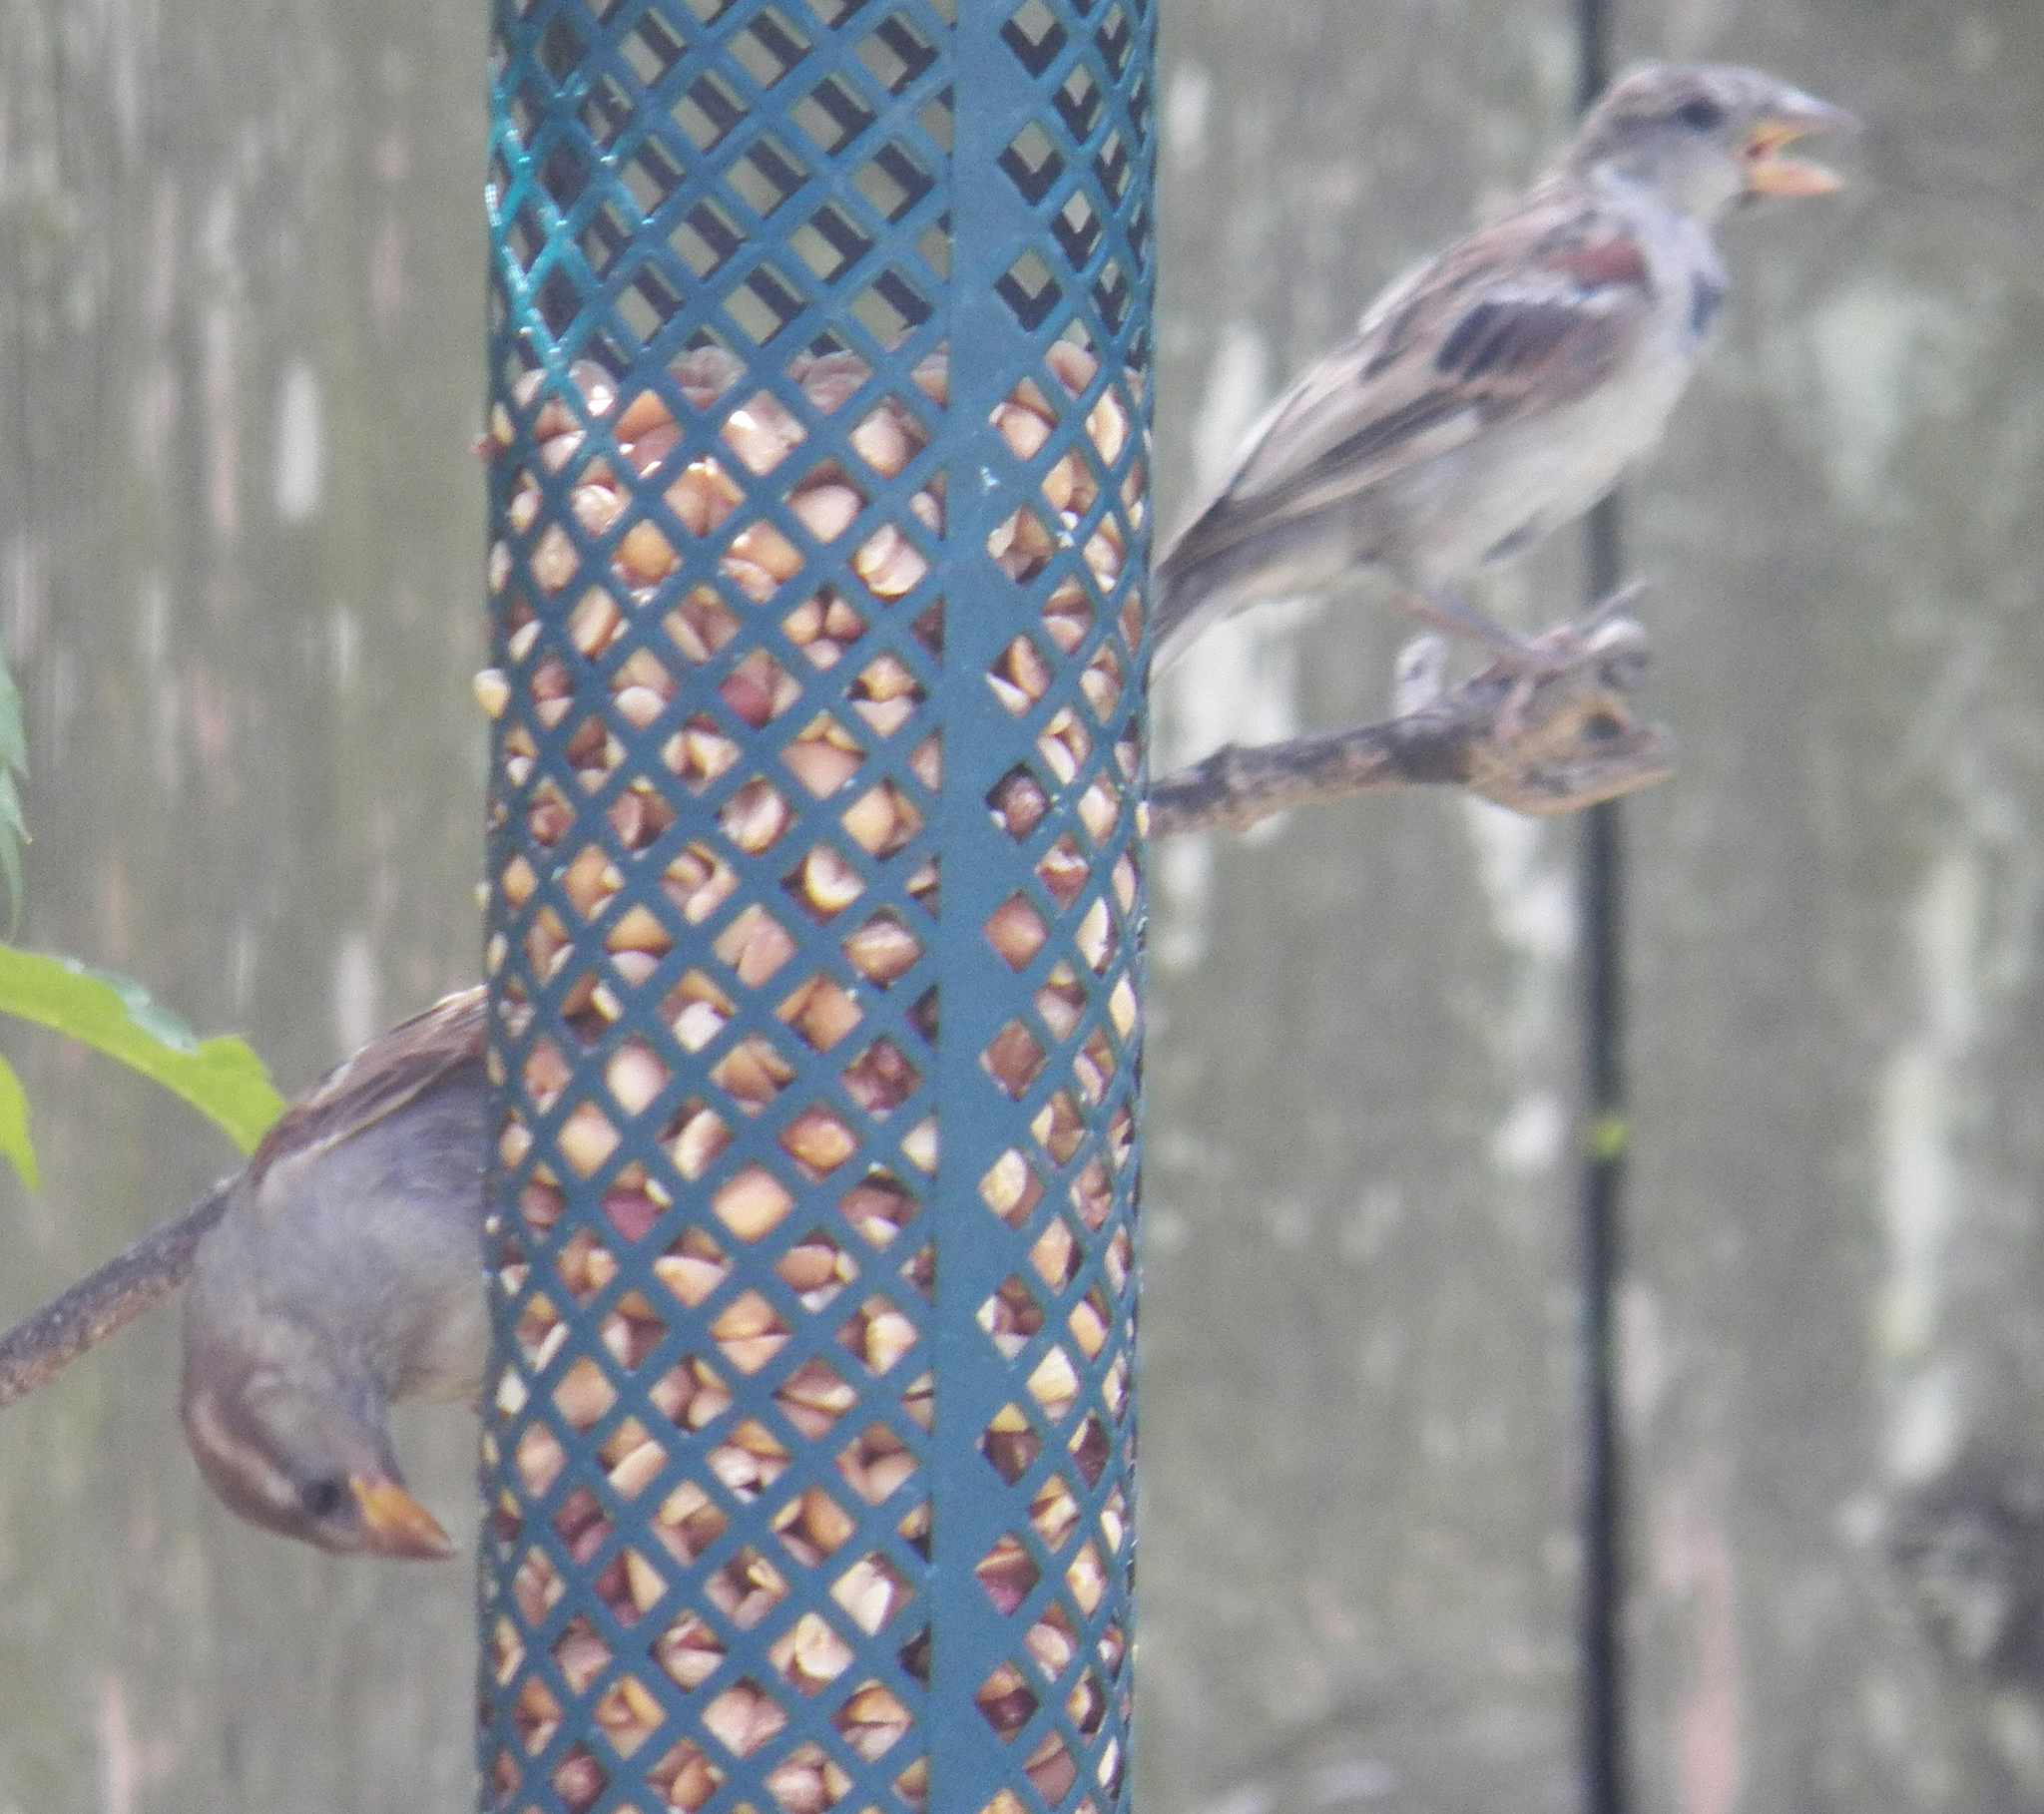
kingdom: Animalia
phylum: Chordata
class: Aves
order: Passeriformes
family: Passeridae
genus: Passer
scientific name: Passer domesticus
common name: House sparrow
